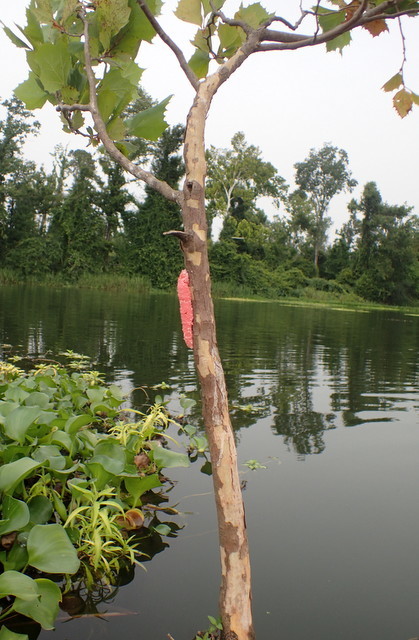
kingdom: Plantae
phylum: Tracheophyta
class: Magnoliopsida
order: Proteales
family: Platanaceae
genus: Platanus
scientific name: Platanus occidentalis
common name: American sycamore
